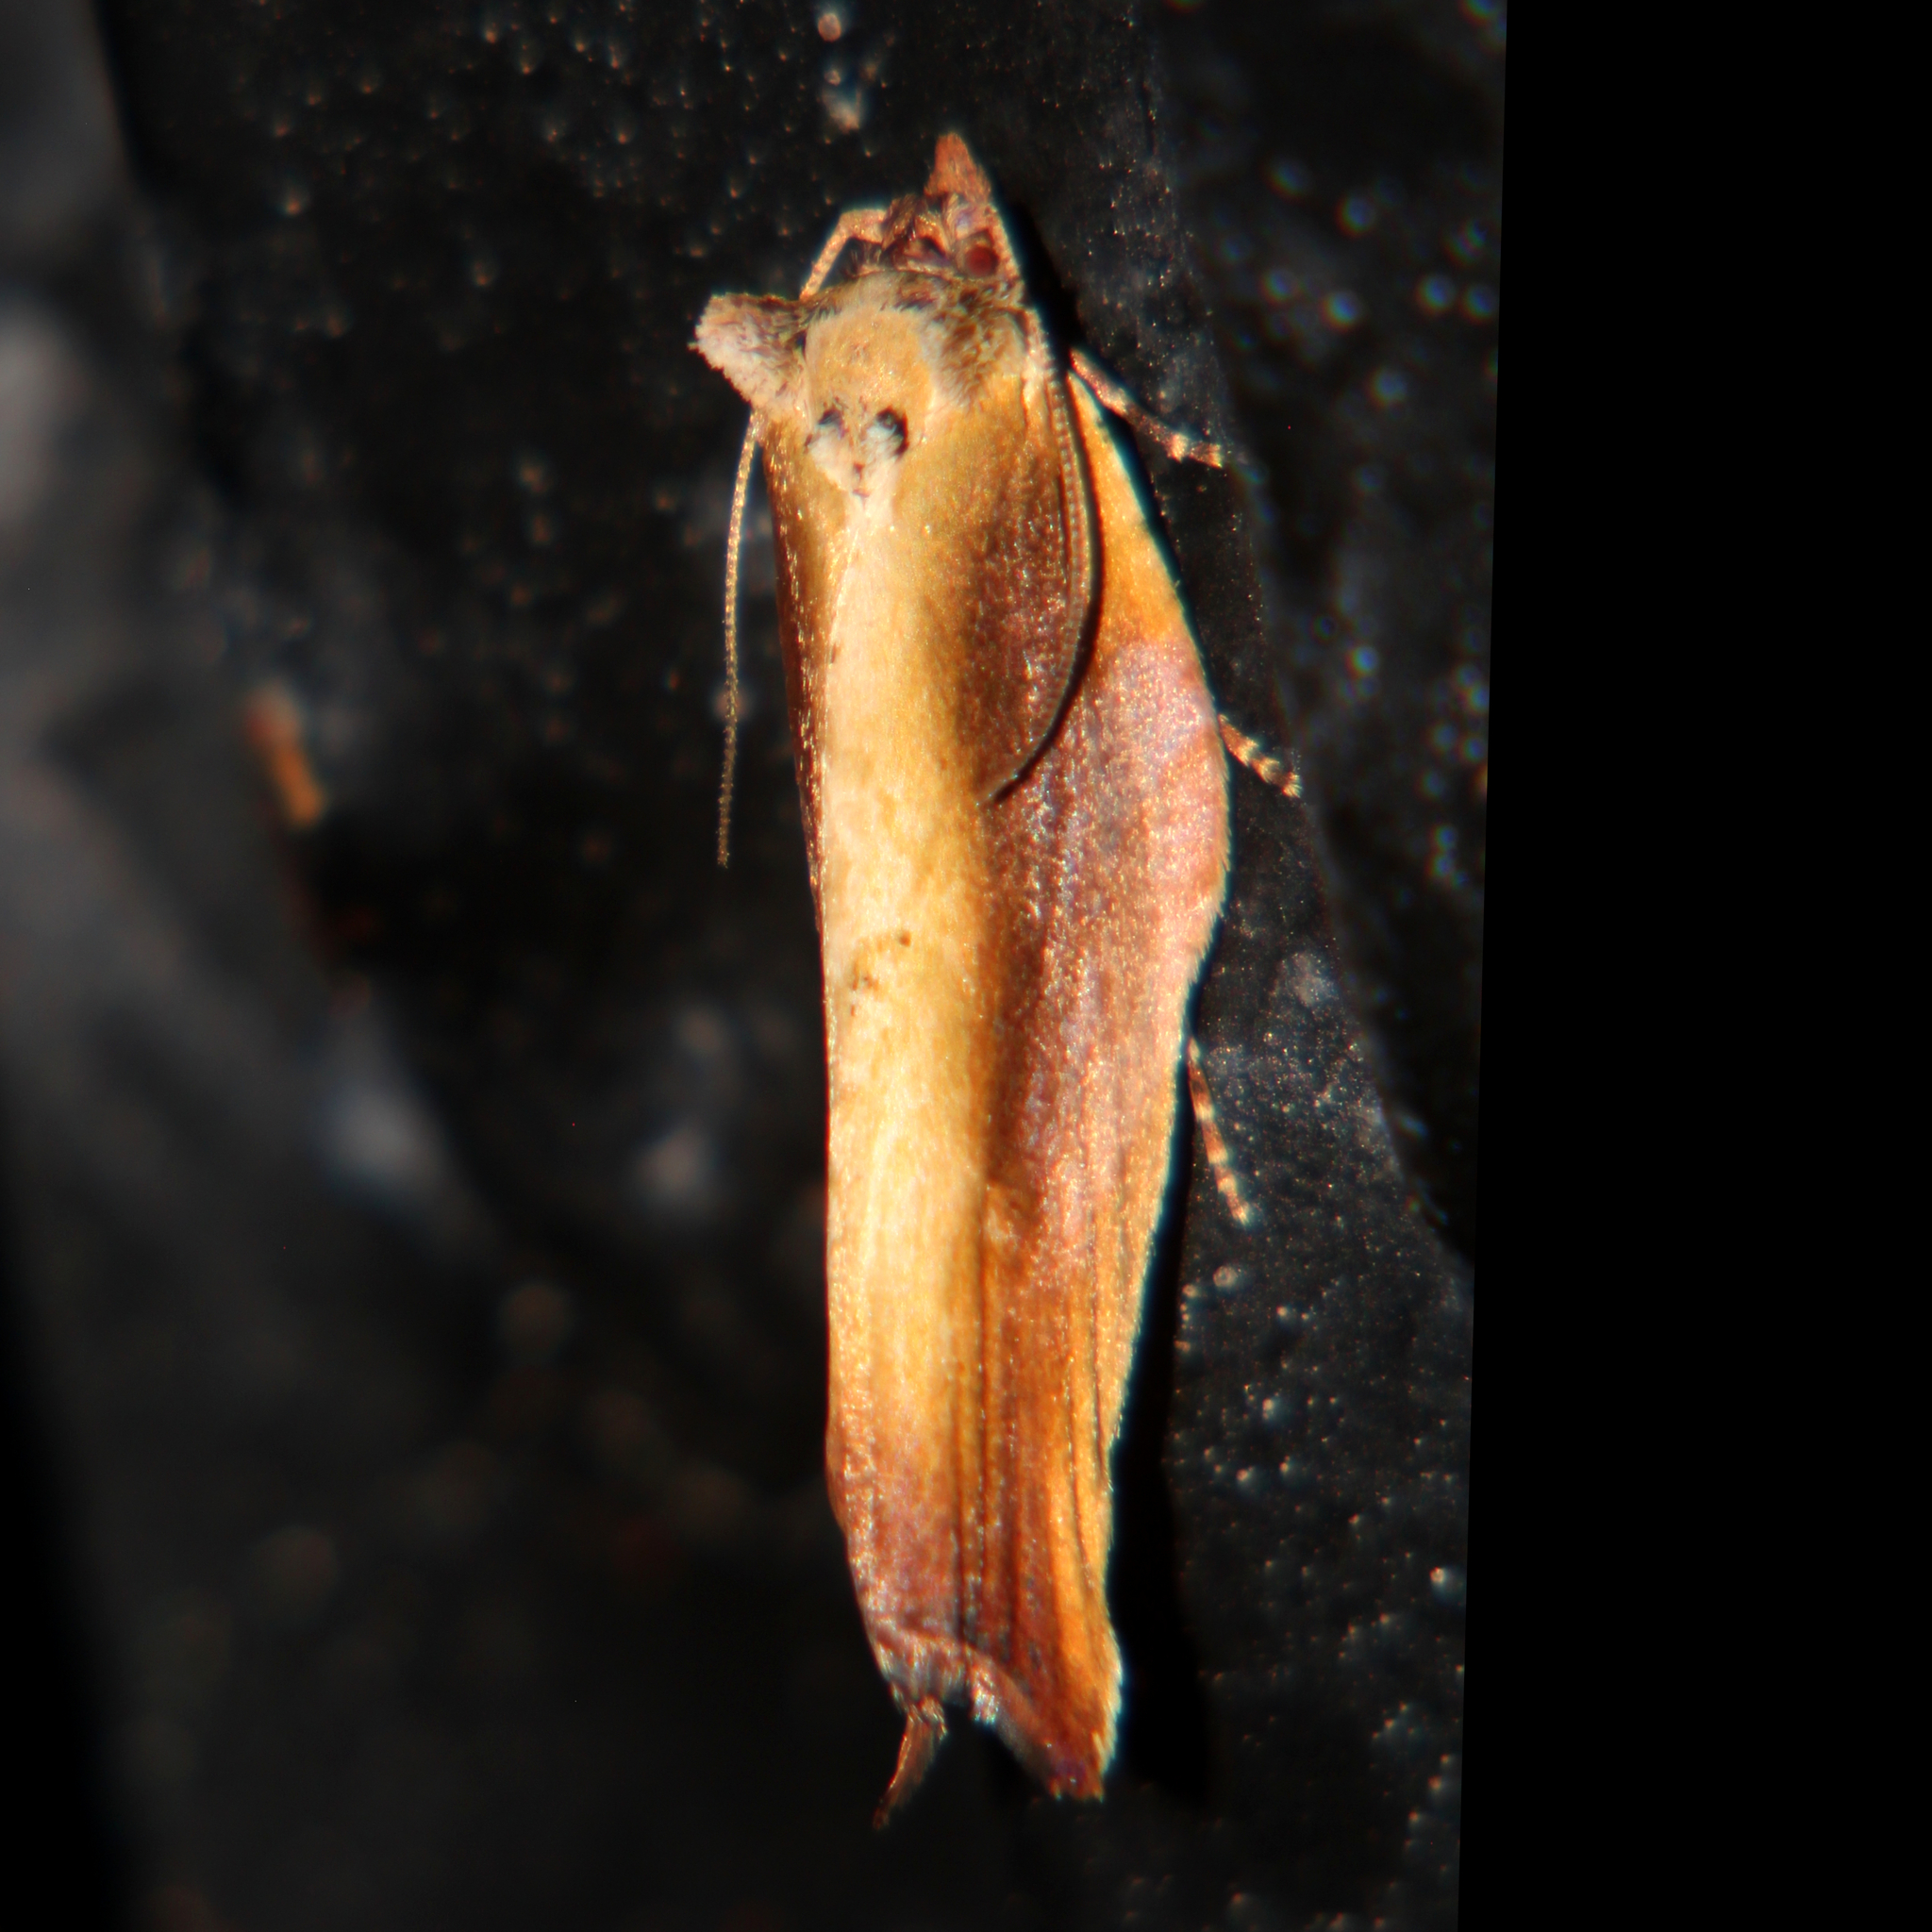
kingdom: Animalia
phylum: Arthropoda
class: Insecta
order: Lepidoptera
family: Tortricidae
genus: Epalxiphora
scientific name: Epalxiphora axenana
